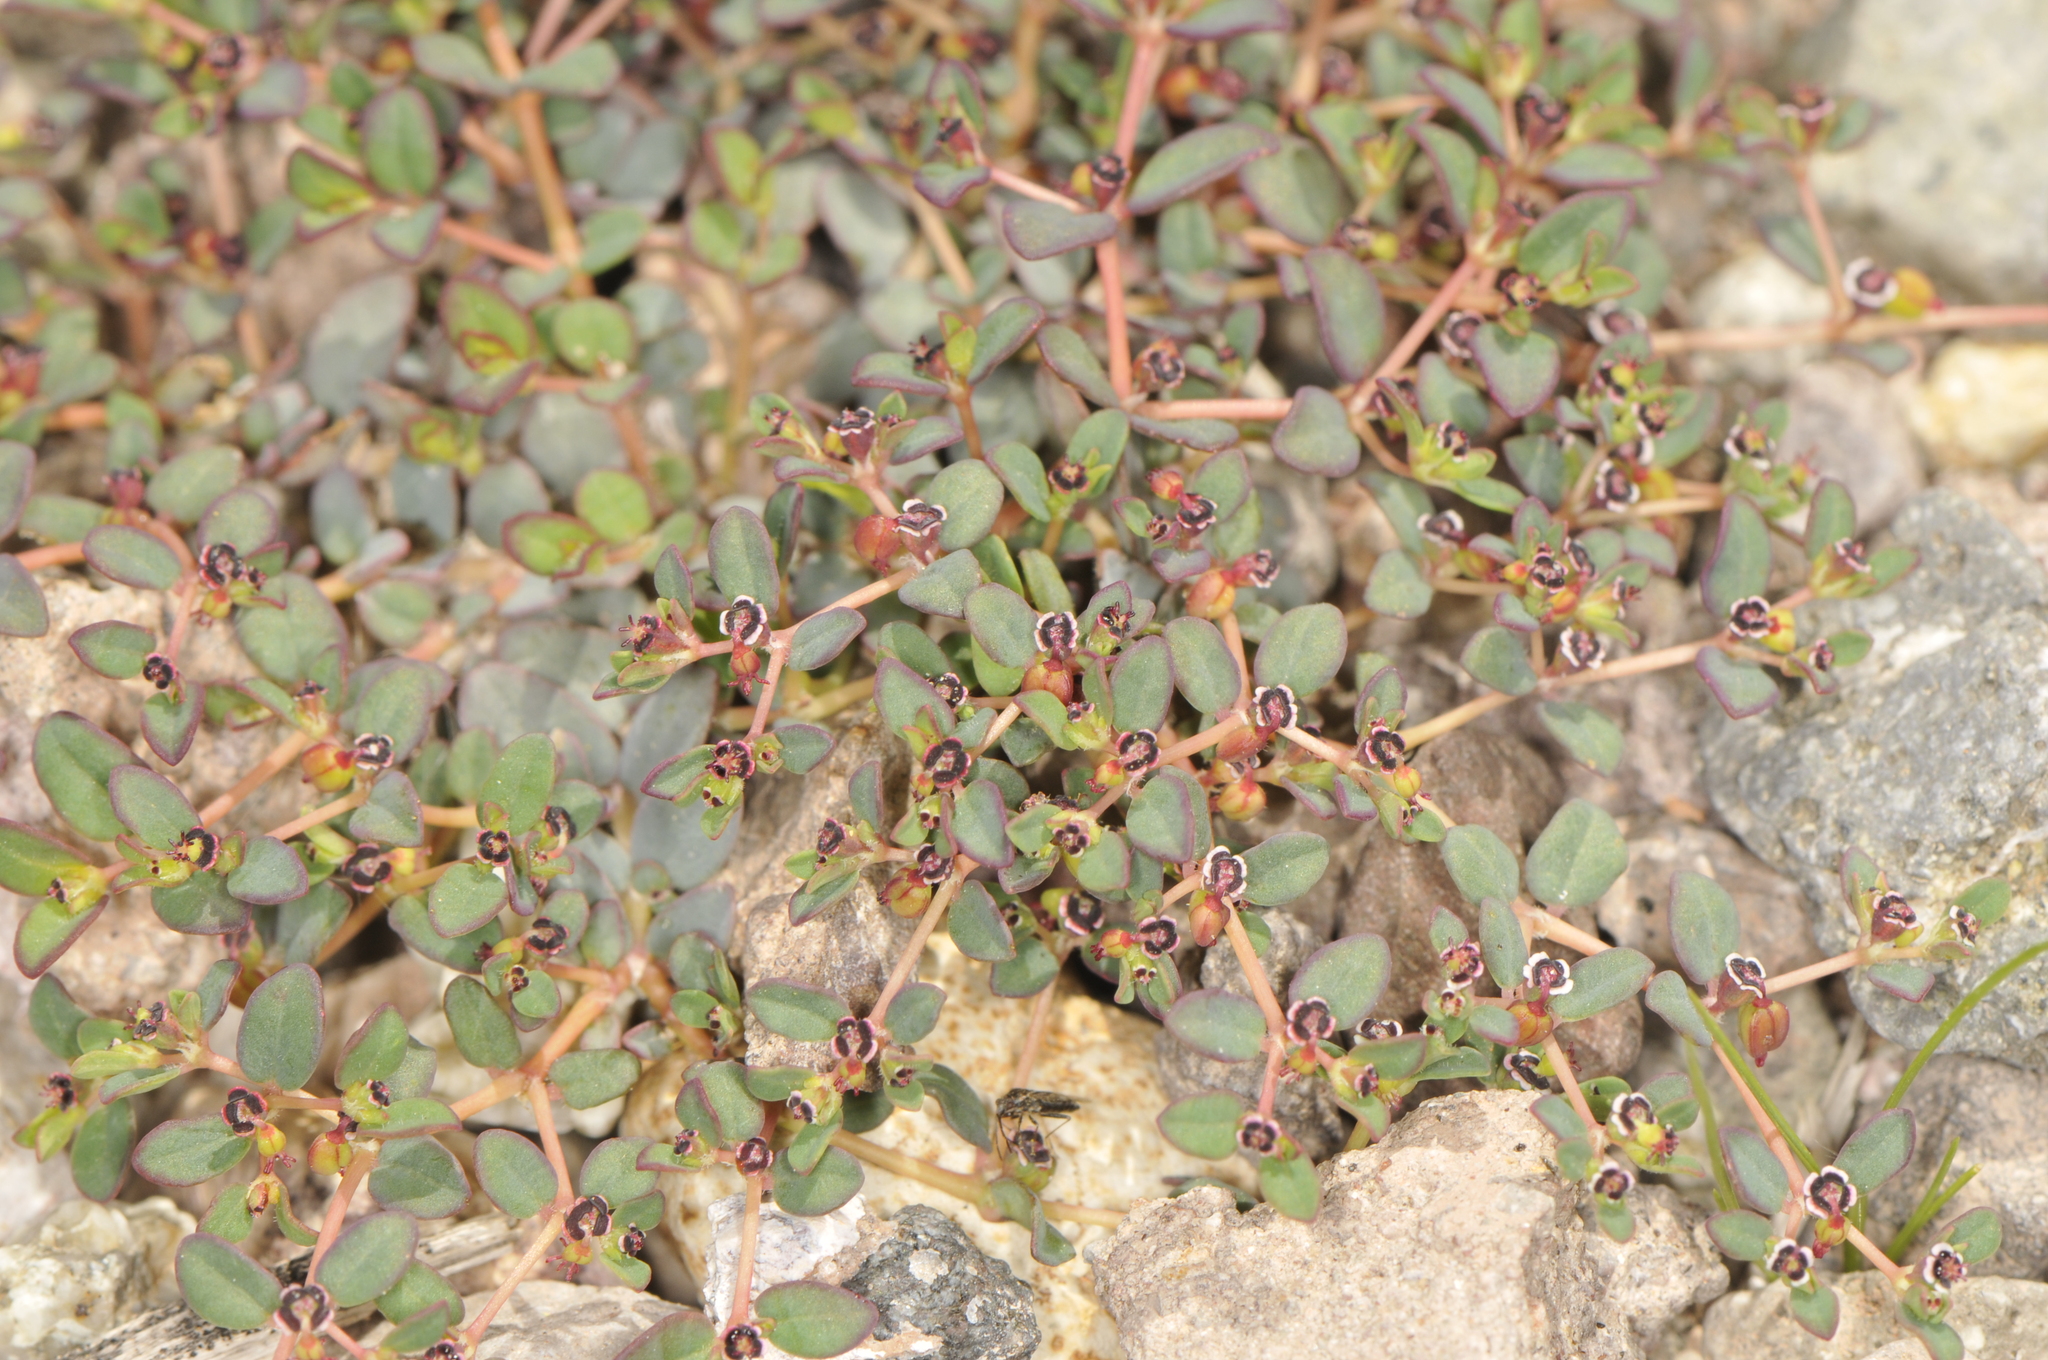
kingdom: Plantae
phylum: Tracheophyta
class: Magnoliopsida
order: Malpighiales
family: Euphorbiaceae
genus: Euphorbia
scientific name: Euphorbia polycarpa
